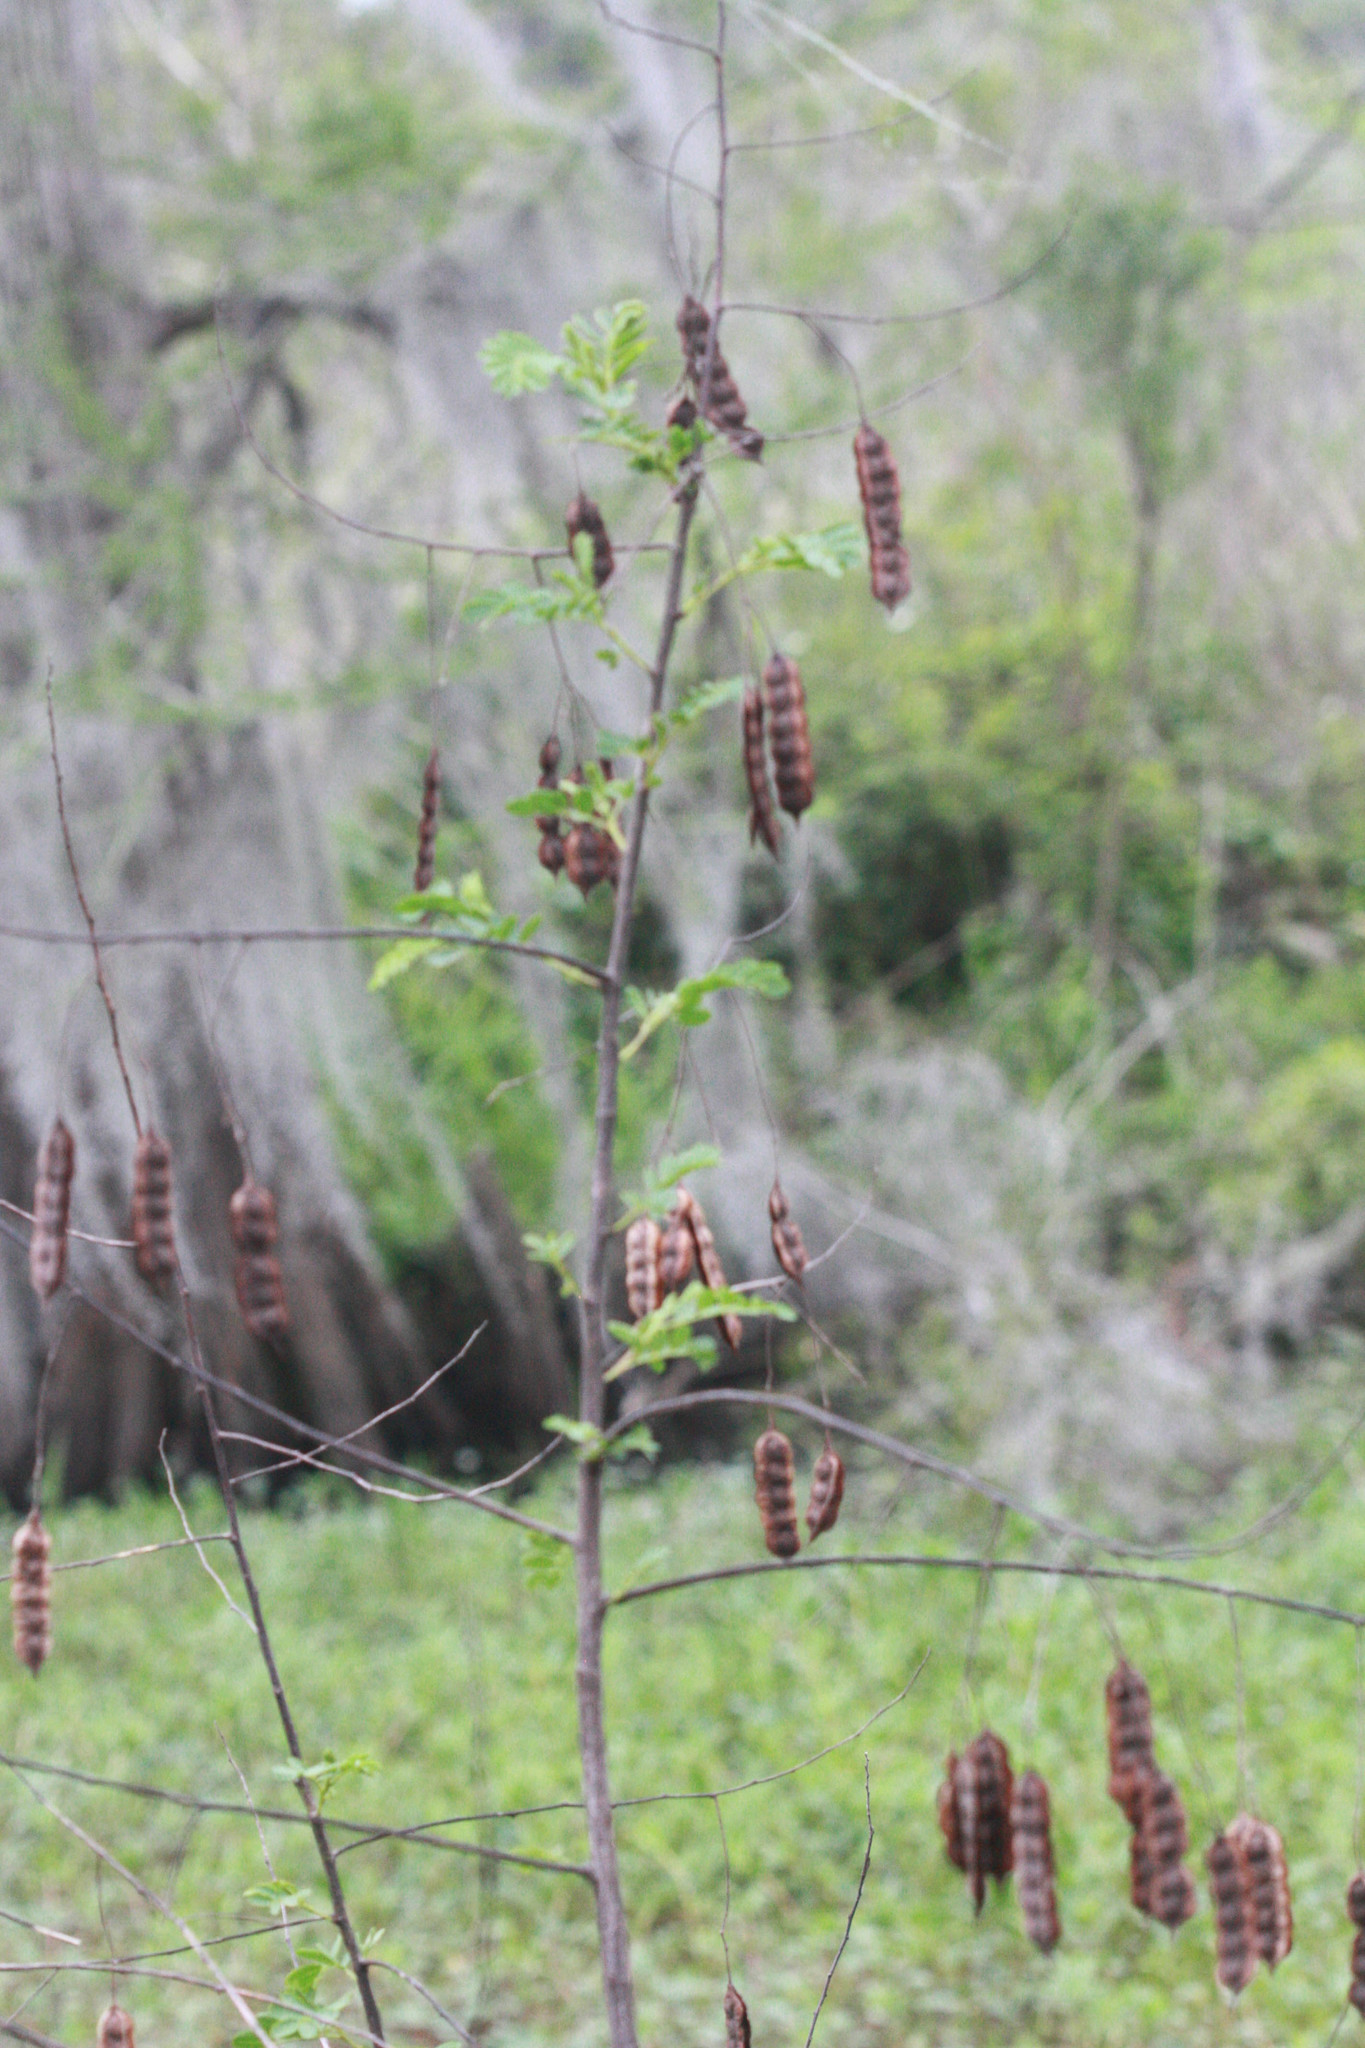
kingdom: Plantae
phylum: Tracheophyta
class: Magnoliopsida
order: Fabales
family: Fabaceae
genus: Sesbania
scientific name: Sesbania drummondii
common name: Poison-bean
